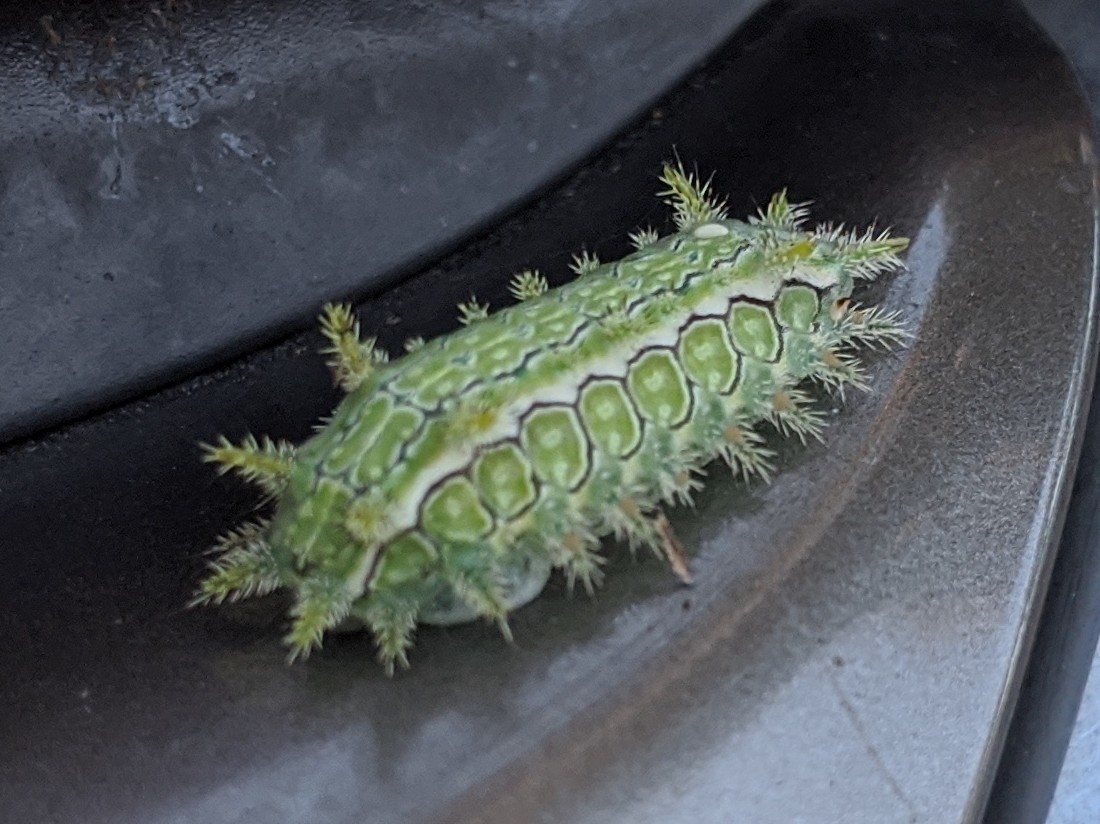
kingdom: Animalia
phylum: Arthropoda
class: Insecta
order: Lepidoptera
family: Limacodidae
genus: Euclea
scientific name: Euclea incisa
